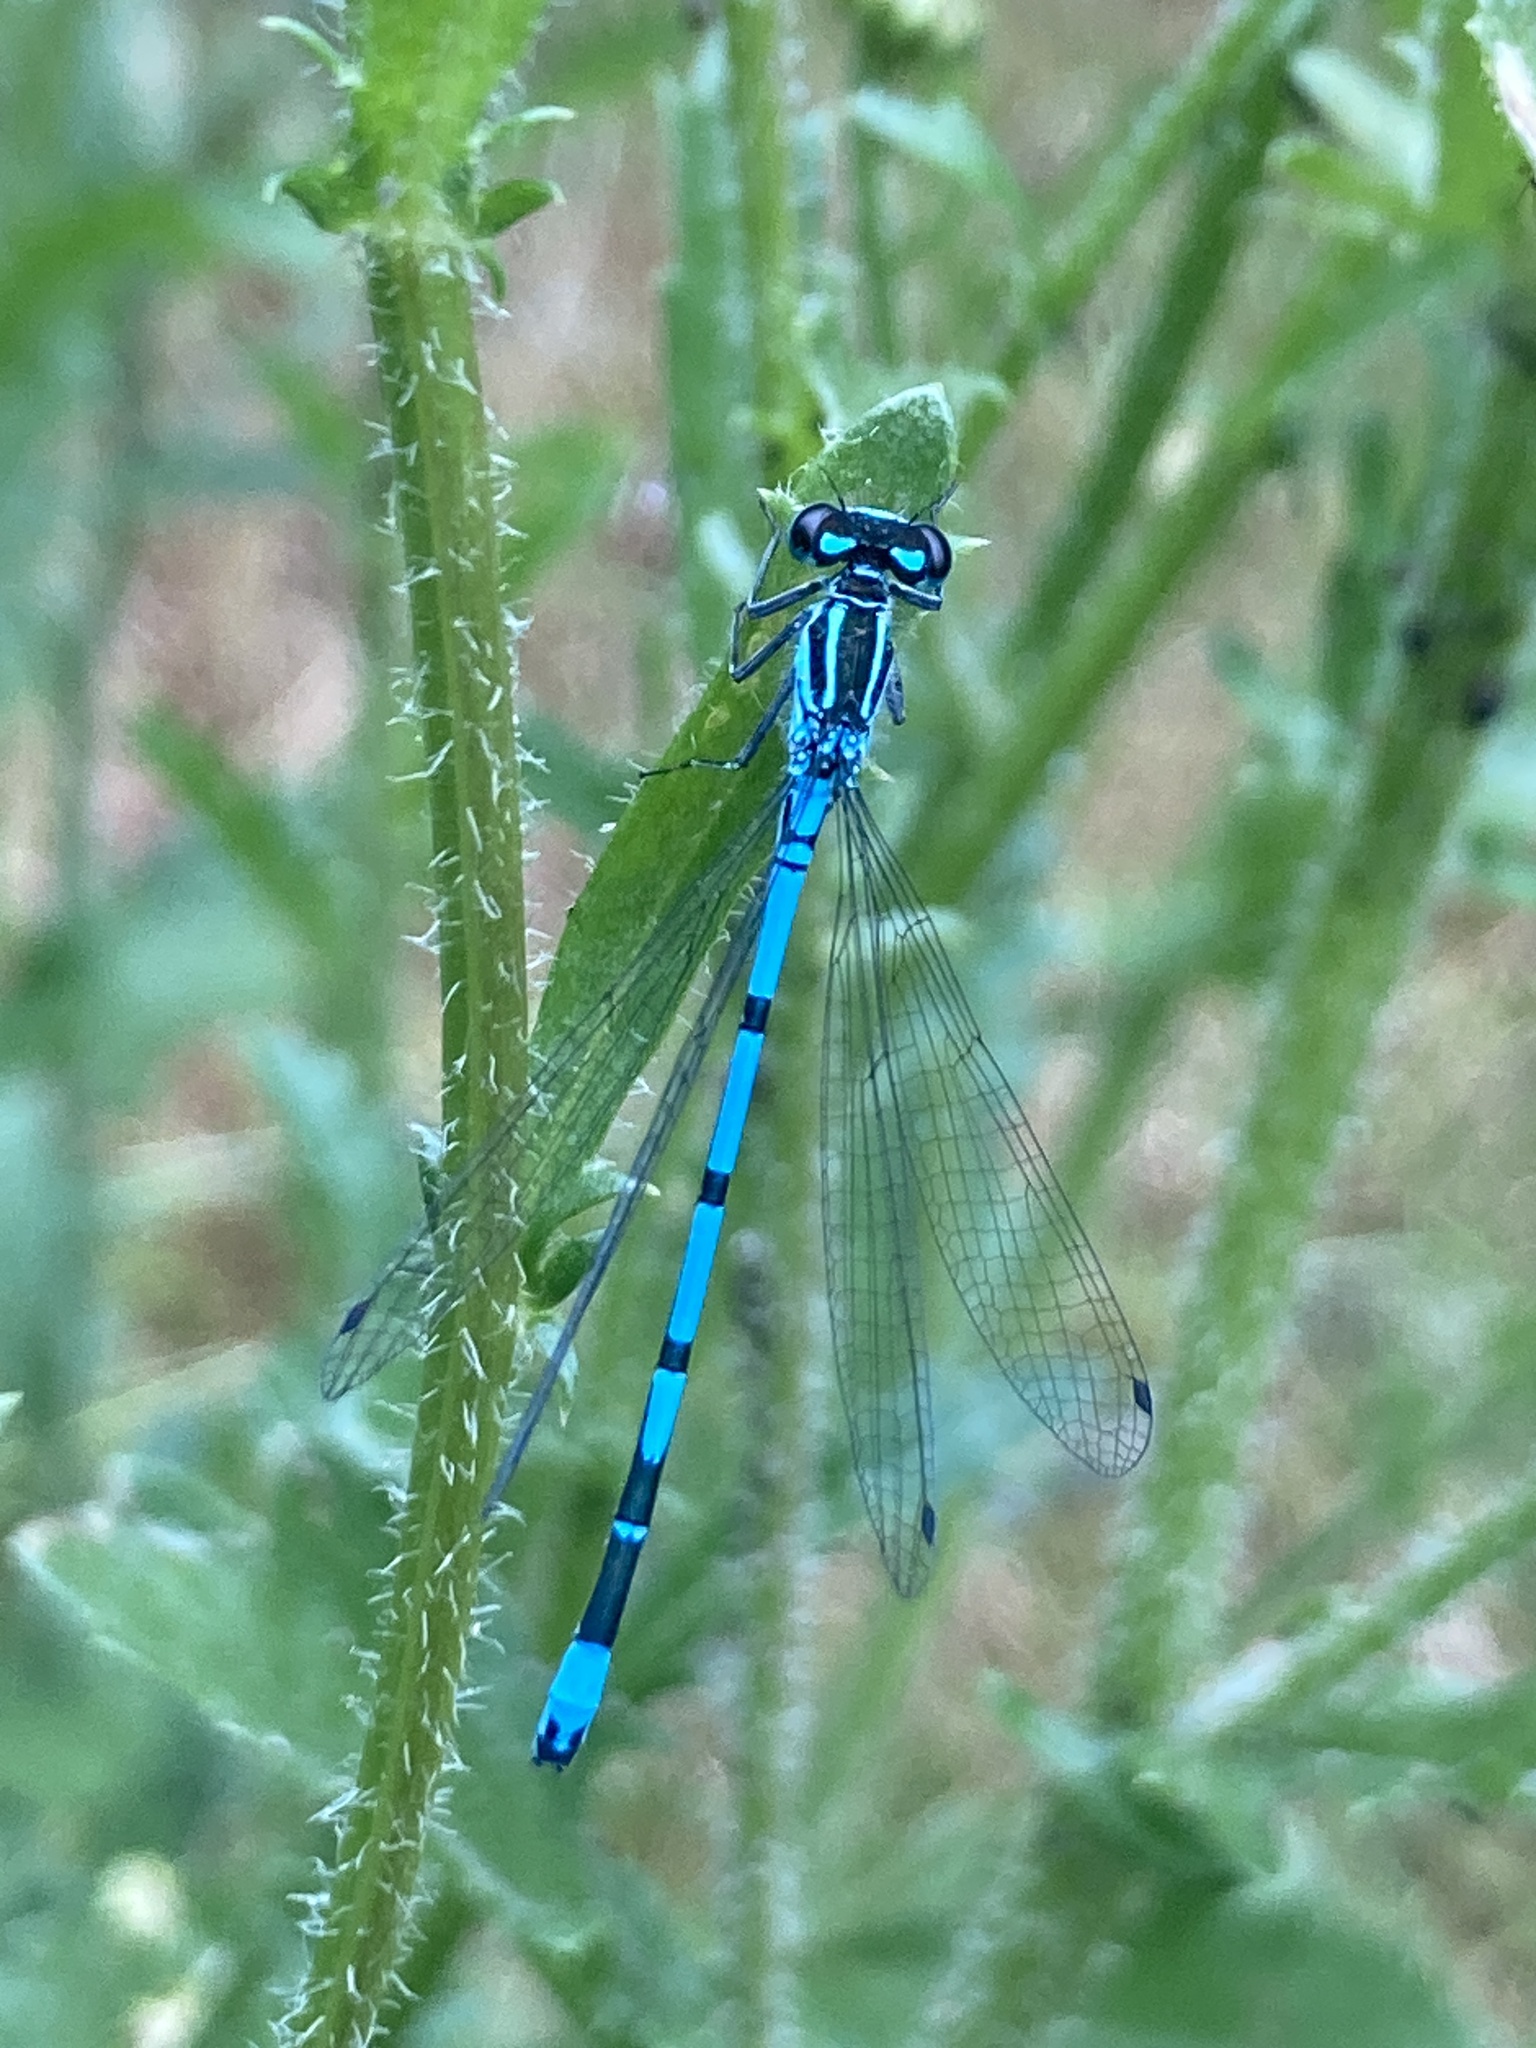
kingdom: Animalia
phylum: Arthropoda
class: Insecta
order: Odonata
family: Coenagrionidae
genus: Coenagrion
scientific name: Coenagrion puella
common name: Azure damselfly
